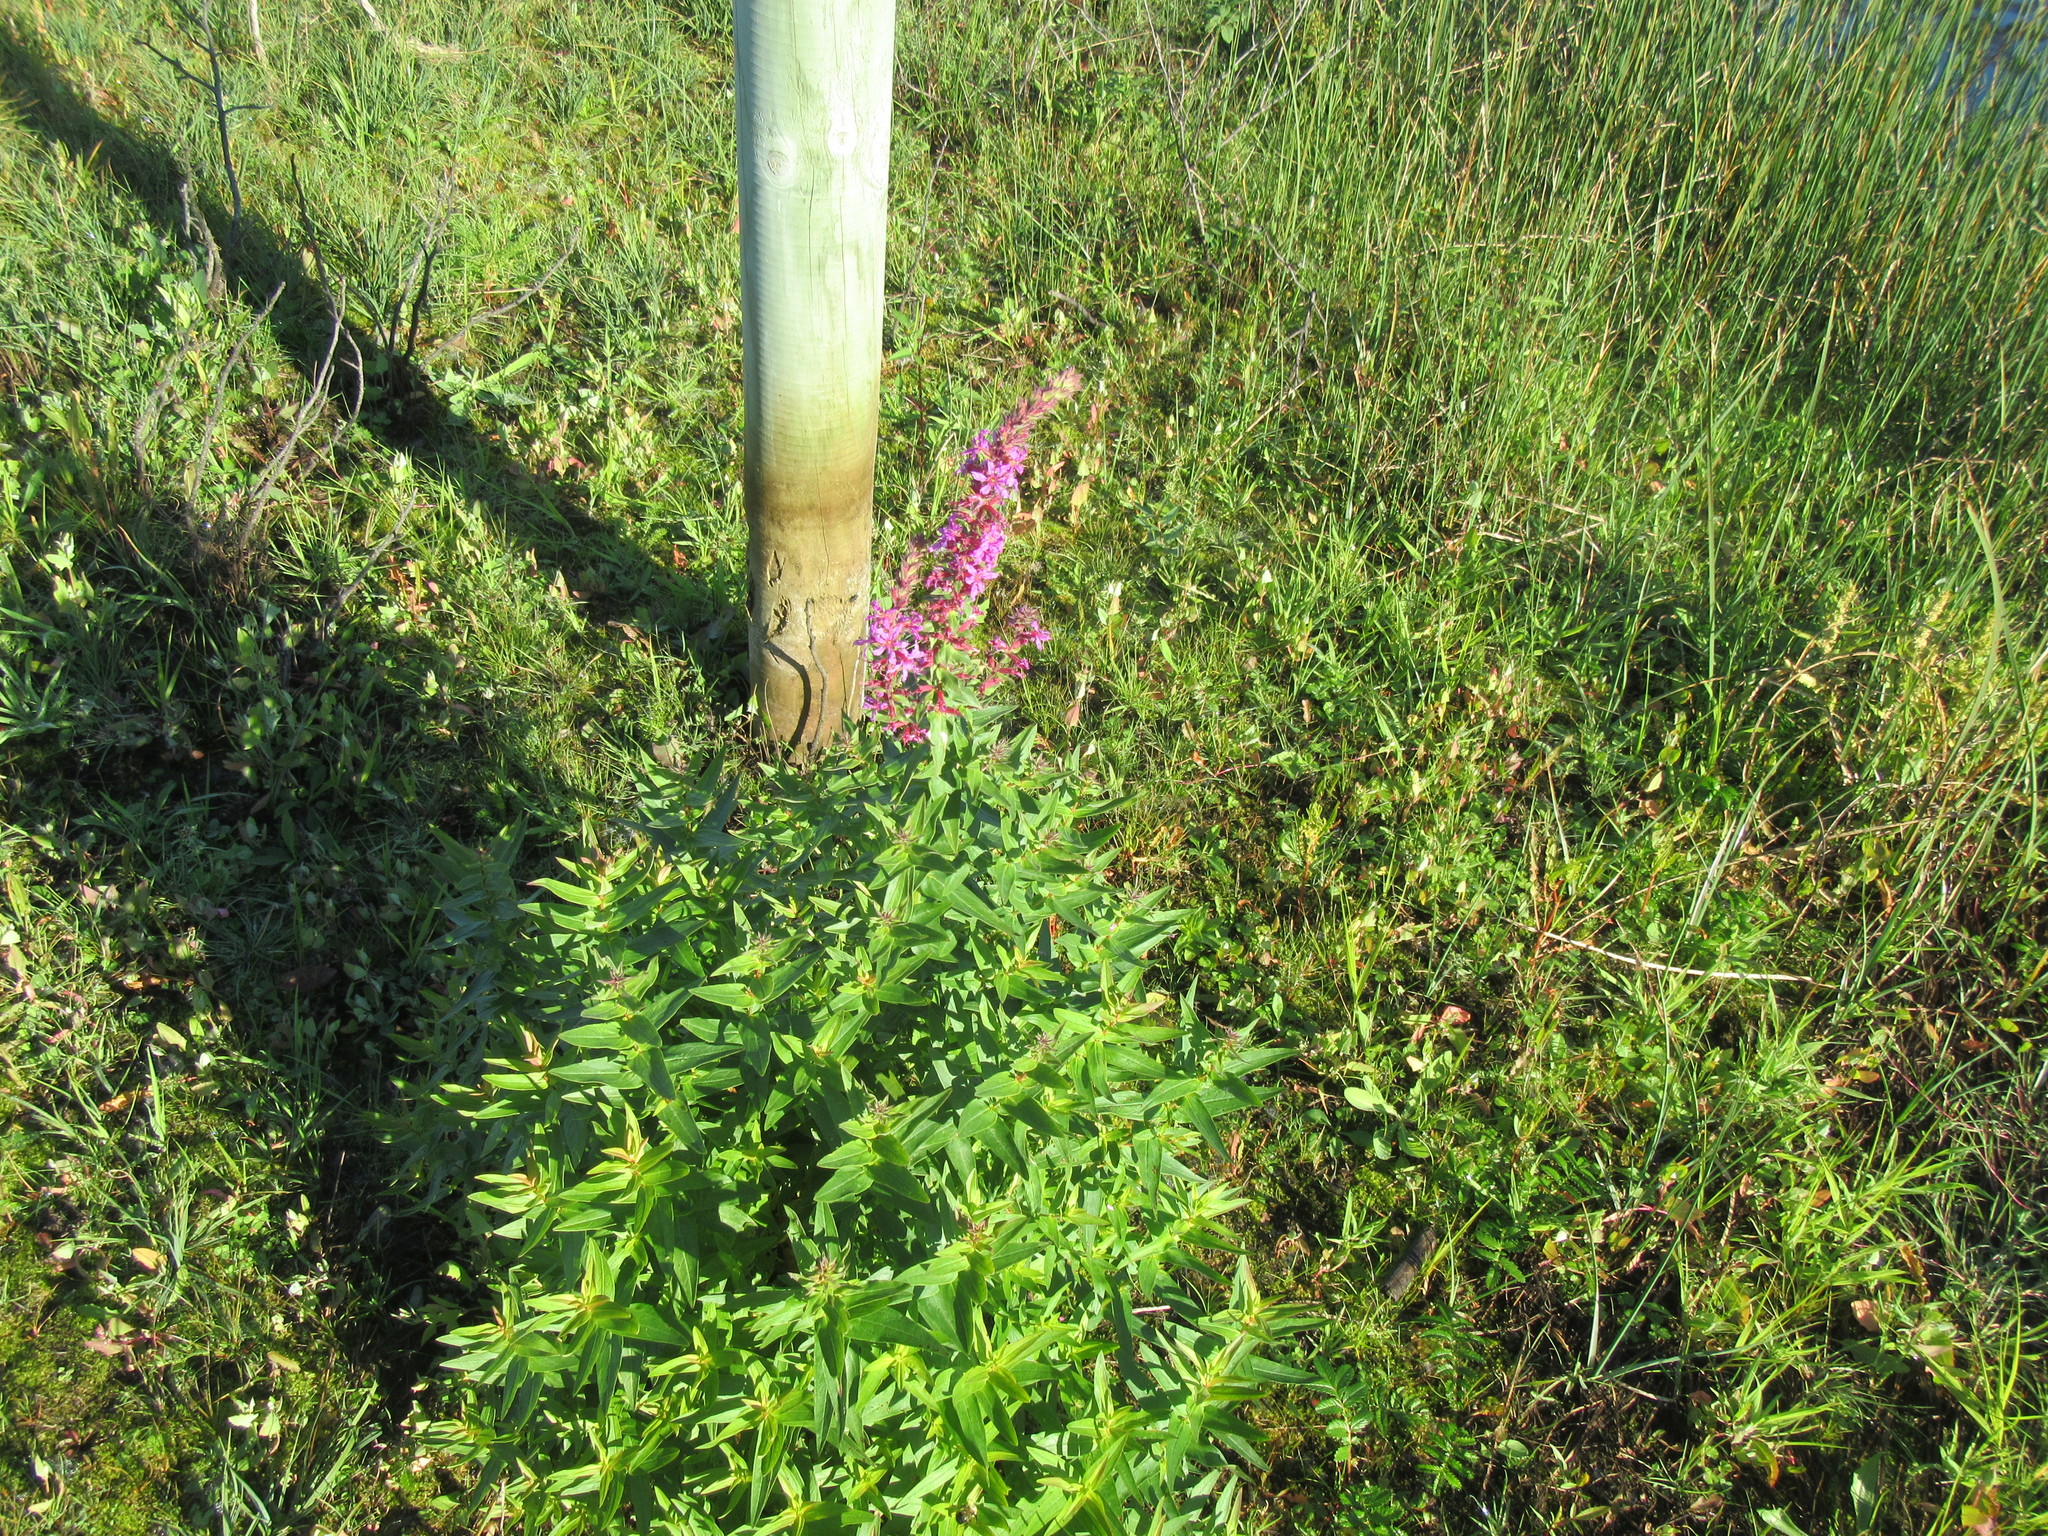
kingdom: Plantae
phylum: Tracheophyta
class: Magnoliopsida
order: Myrtales
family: Lythraceae
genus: Lythrum
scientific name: Lythrum salicaria
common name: Purple loosestrife
